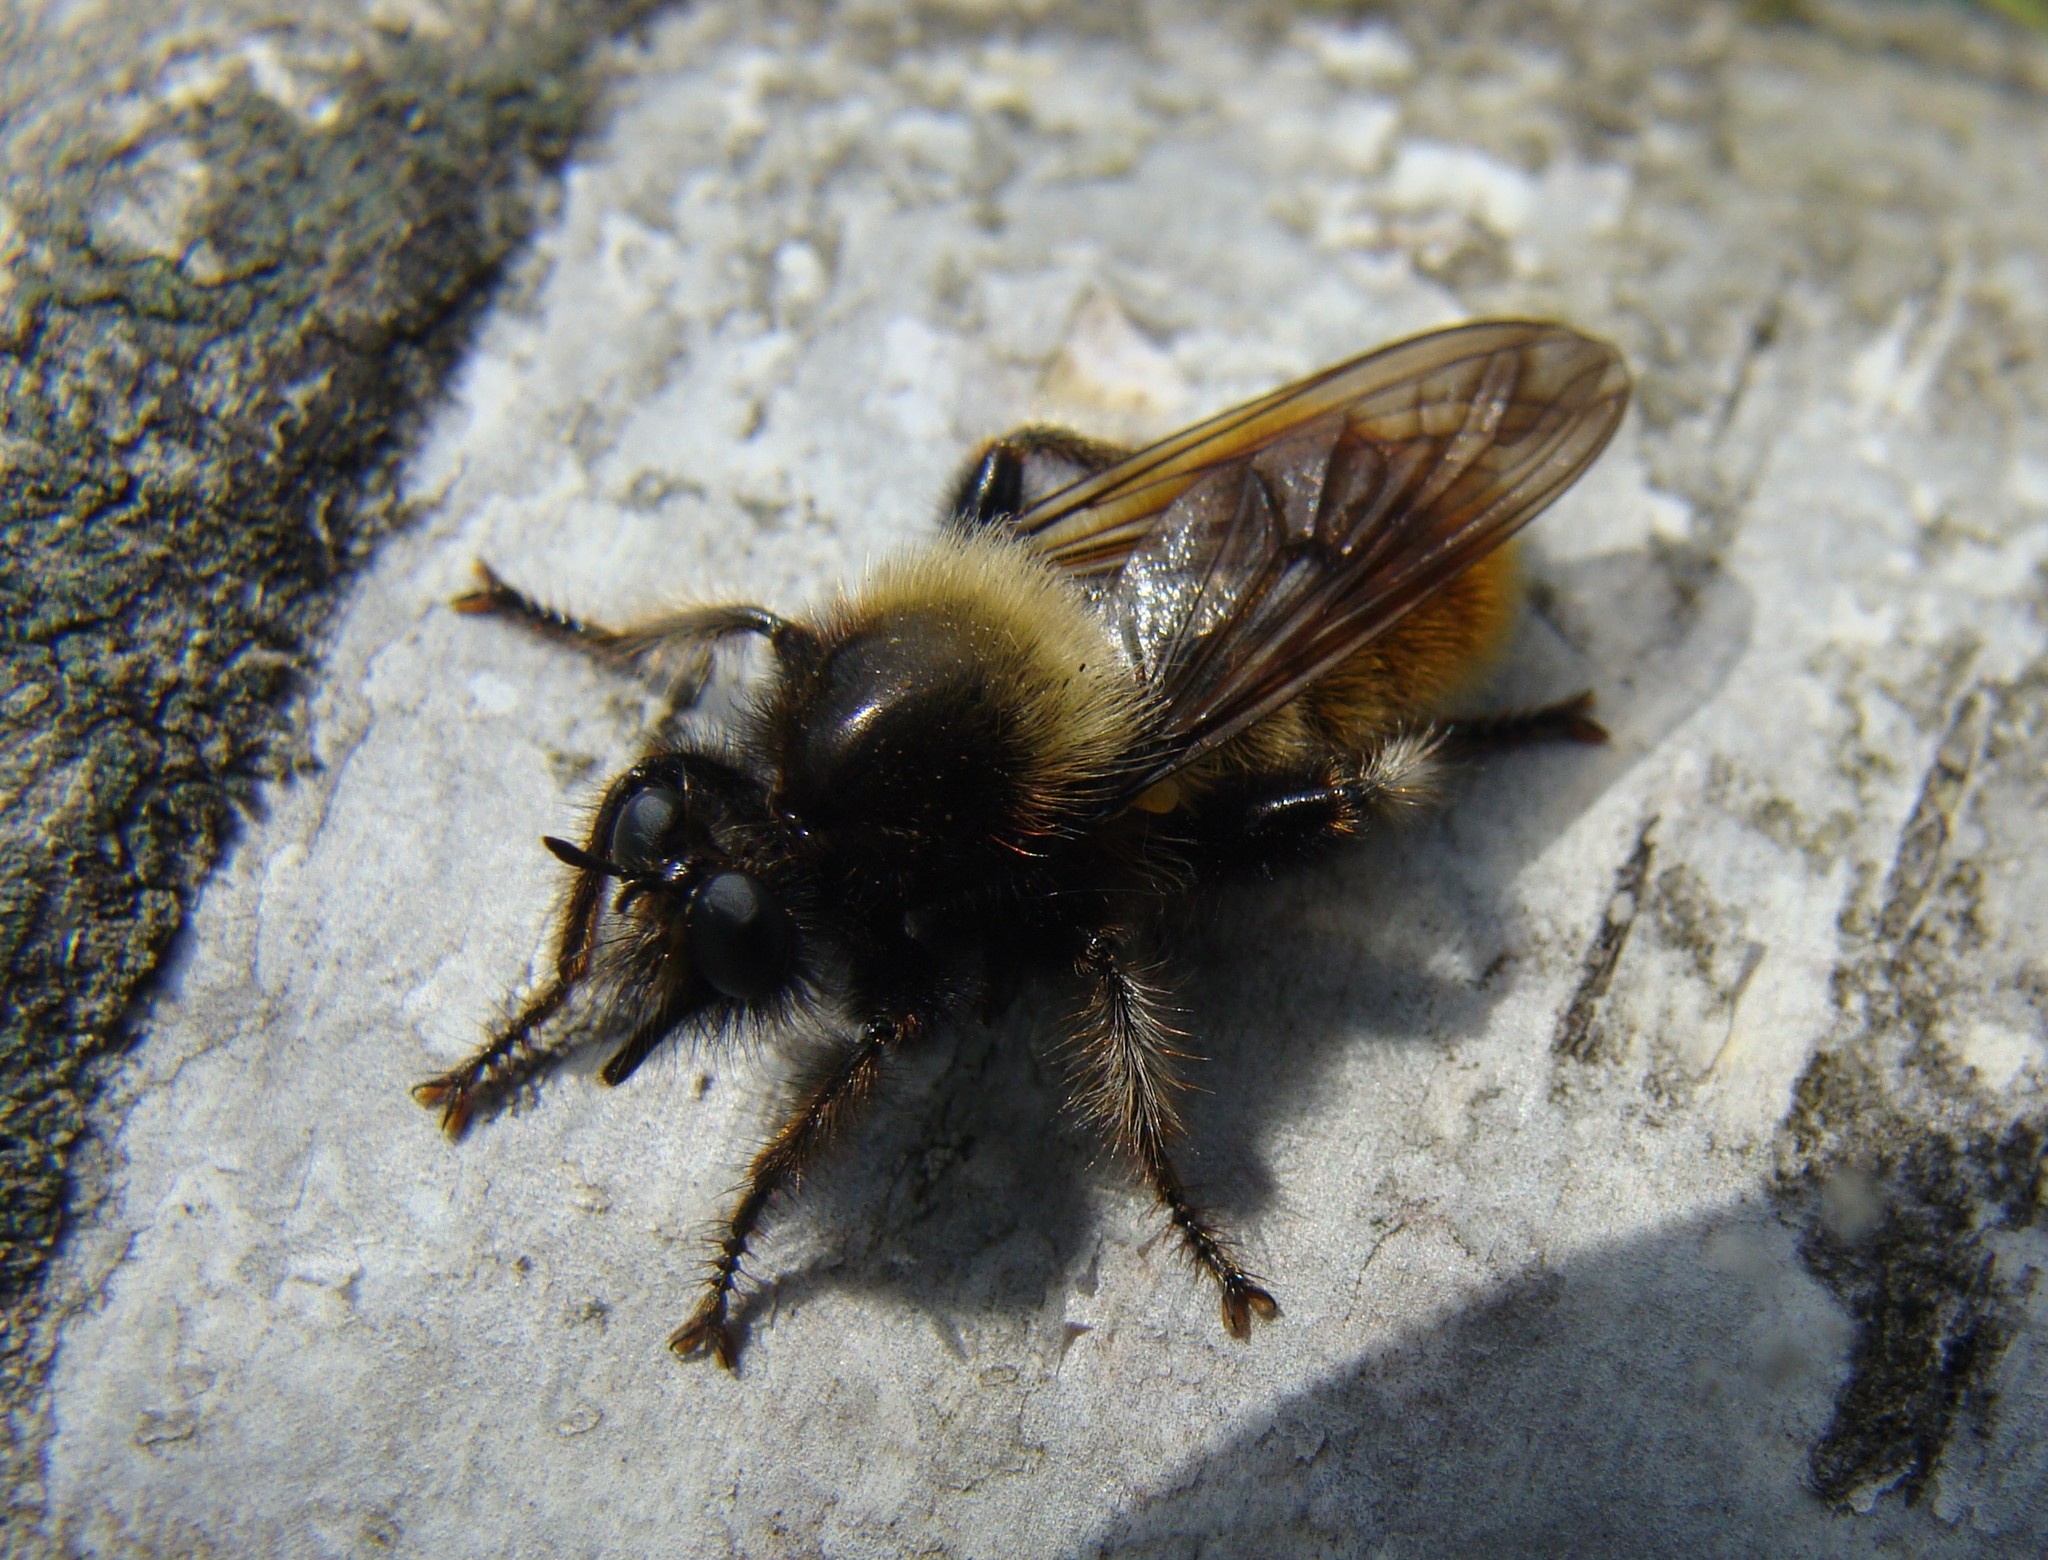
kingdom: Animalia
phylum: Arthropoda
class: Insecta
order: Diptera
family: Asilidae
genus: Laphria
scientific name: Laphria flava
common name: Bumblebee robberfly
